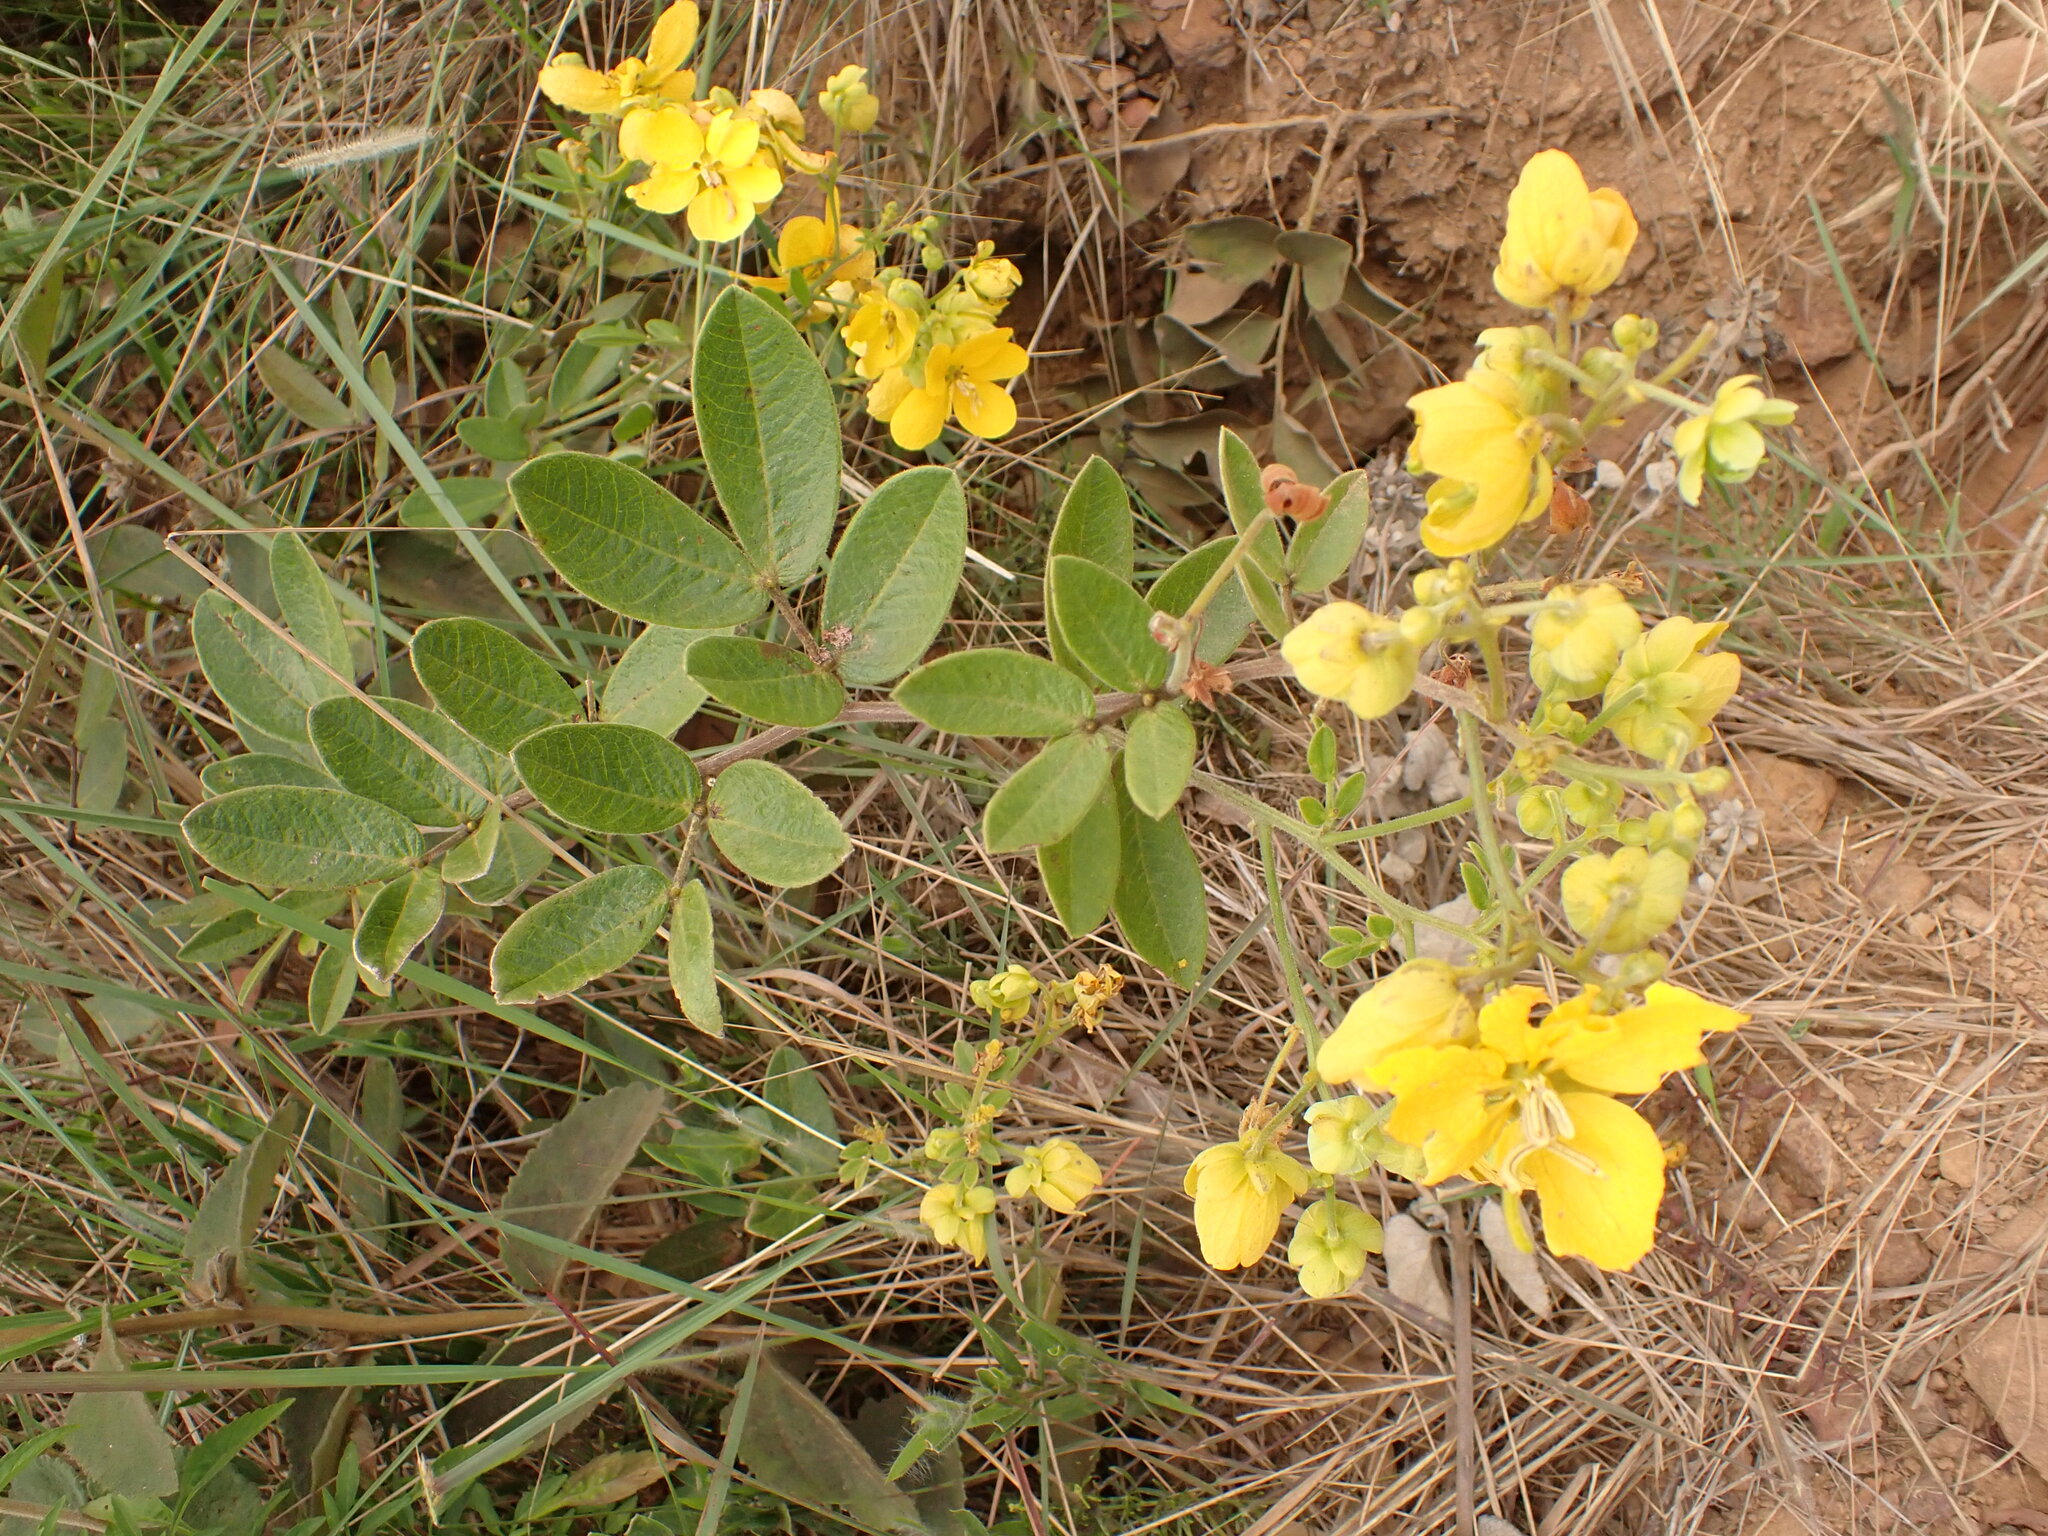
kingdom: Plantae
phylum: Tracheophyta
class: Magnoliopsida
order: Fabales
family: Fabaceae
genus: Senna
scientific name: Senna rugosa
